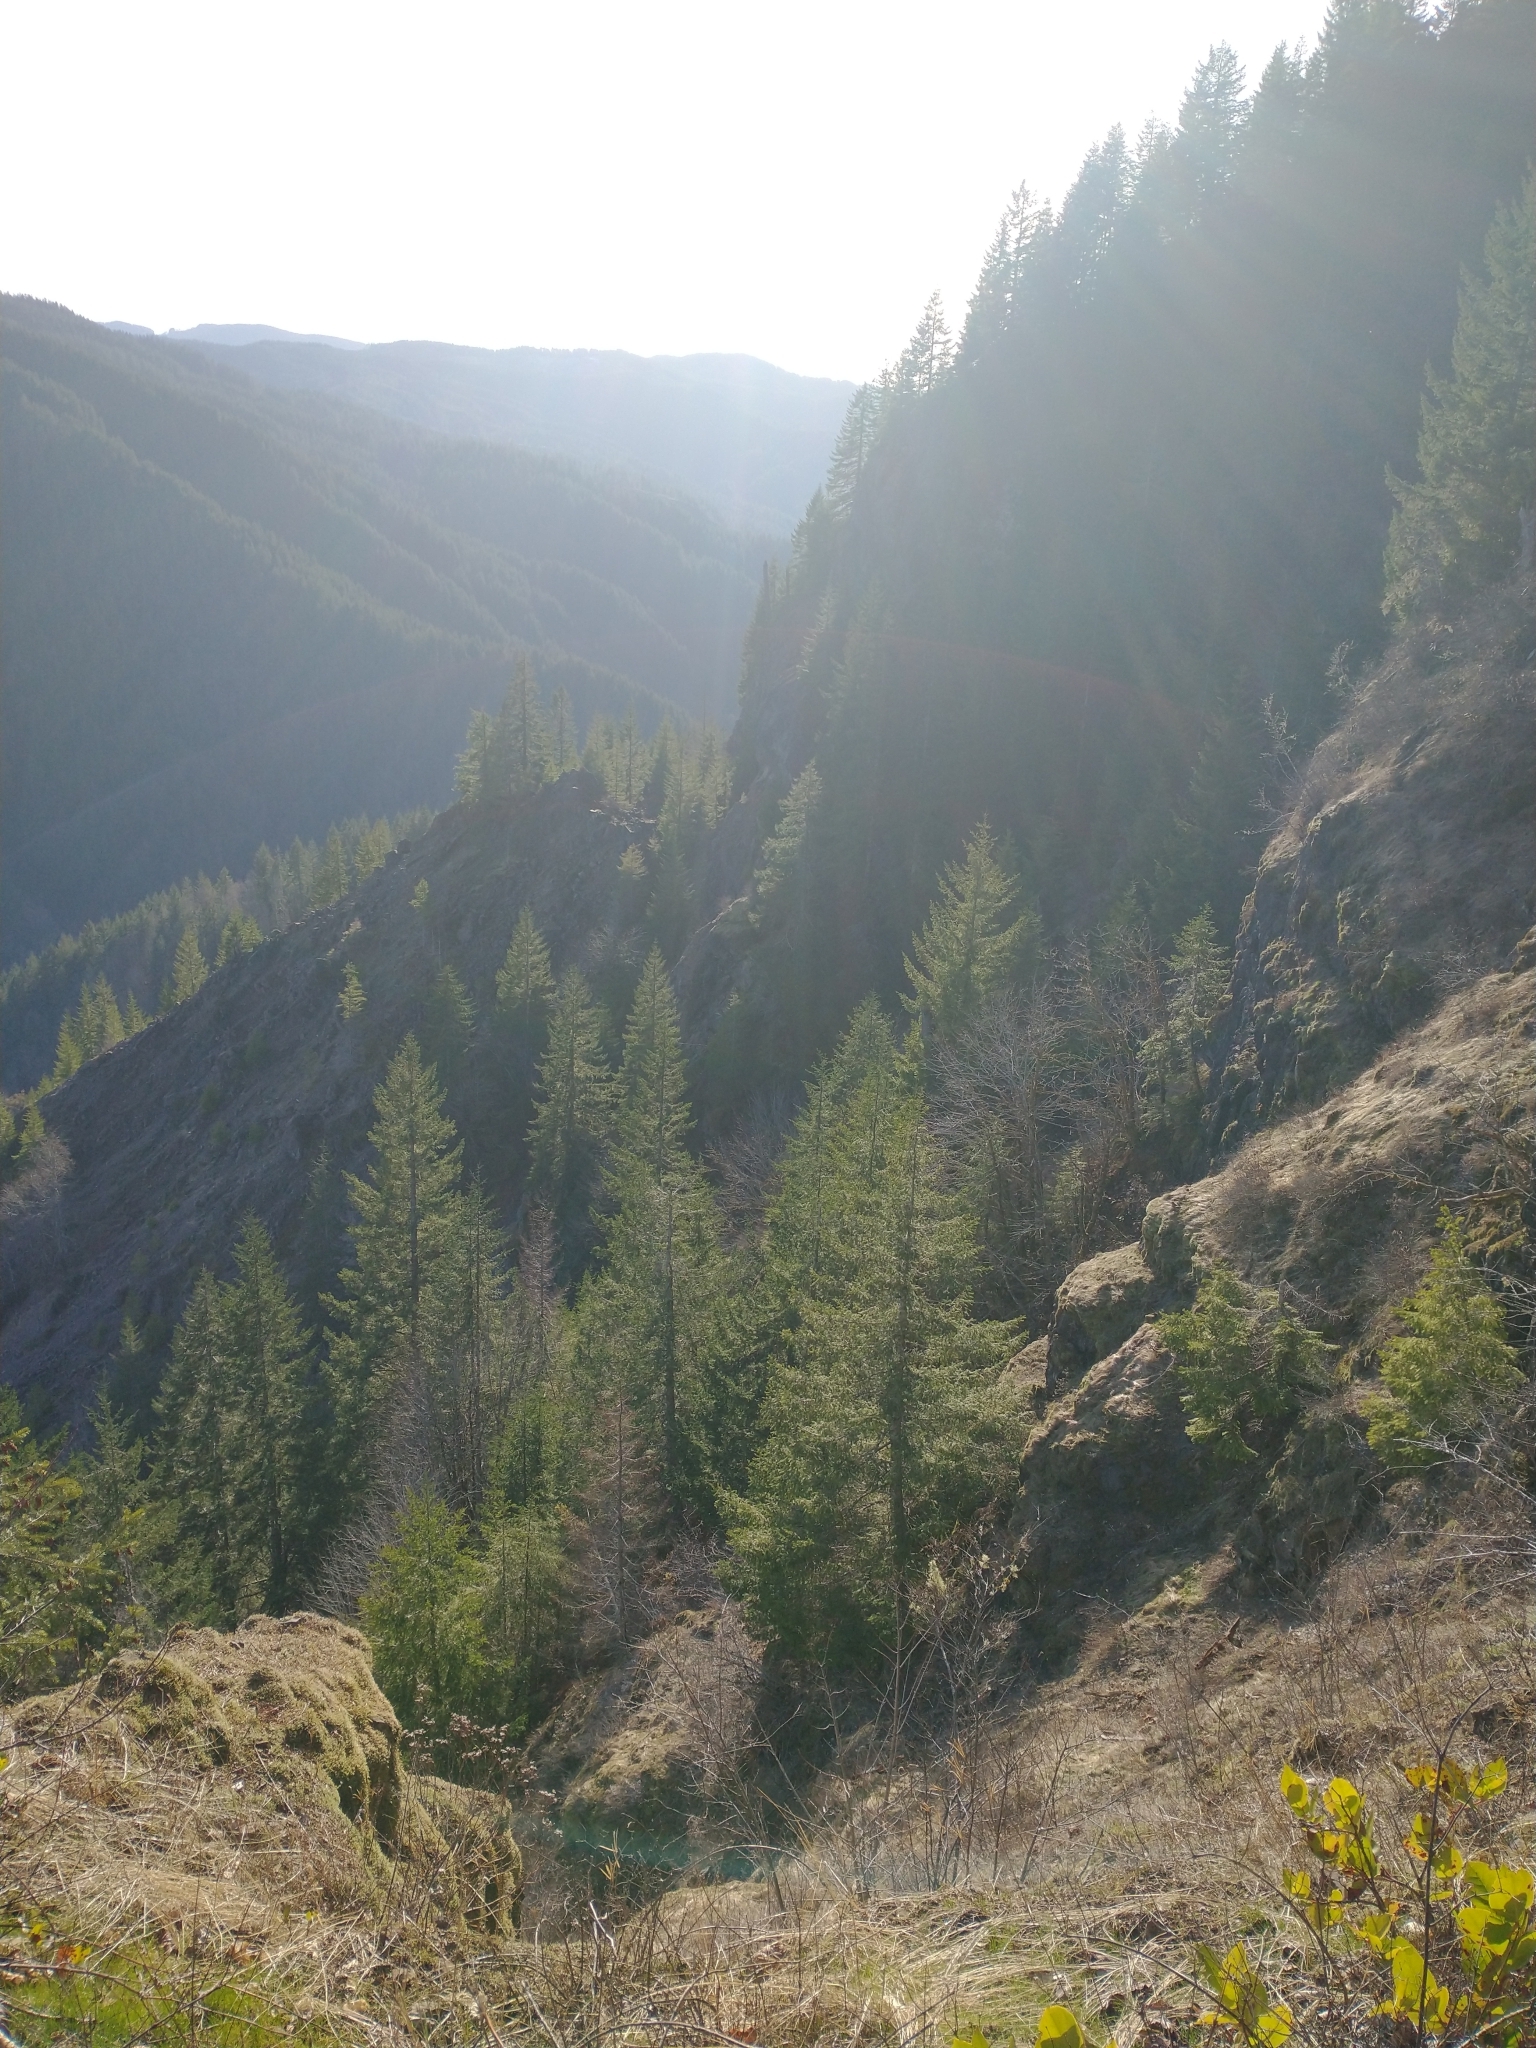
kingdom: Plantae
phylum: Tracheophyta
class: Pinopsida
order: Pinales
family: Pinaceae
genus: Pseudotsuga
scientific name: Pseudotsuga menziesii
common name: Douglas fir
